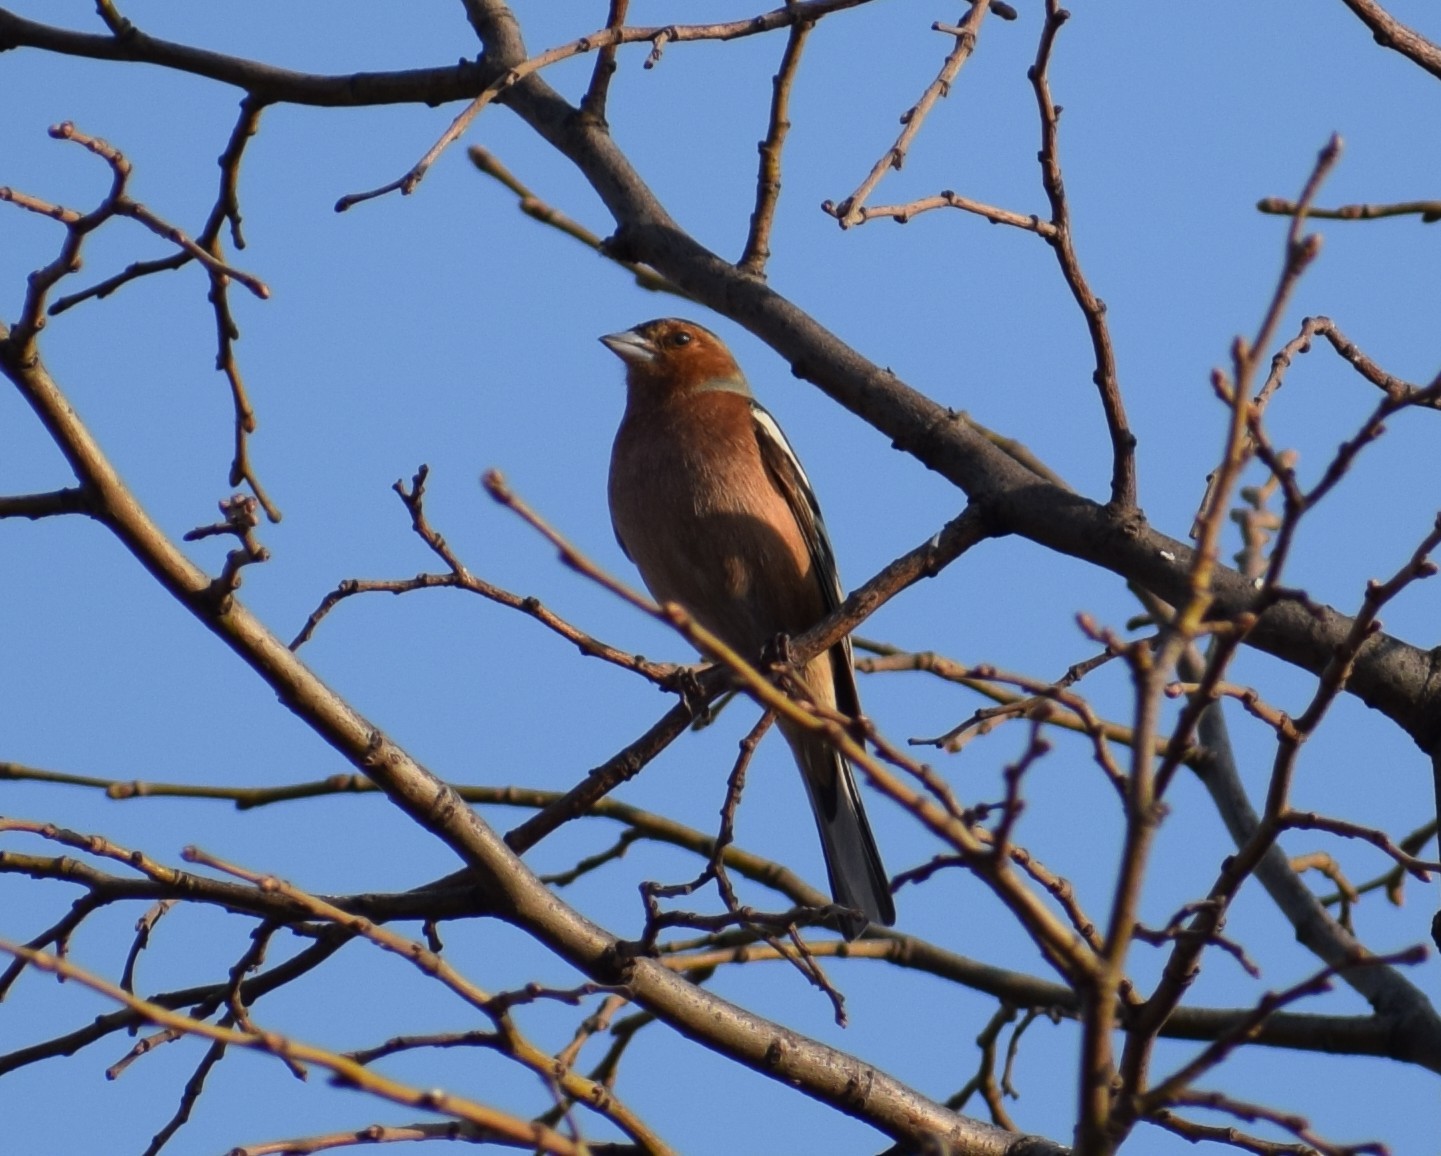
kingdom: Animalia
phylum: Chordata
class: Aves
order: Passeriformes
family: Fringillidae
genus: Fringilla
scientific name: Fringilla coelebs
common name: Common chaffinch
